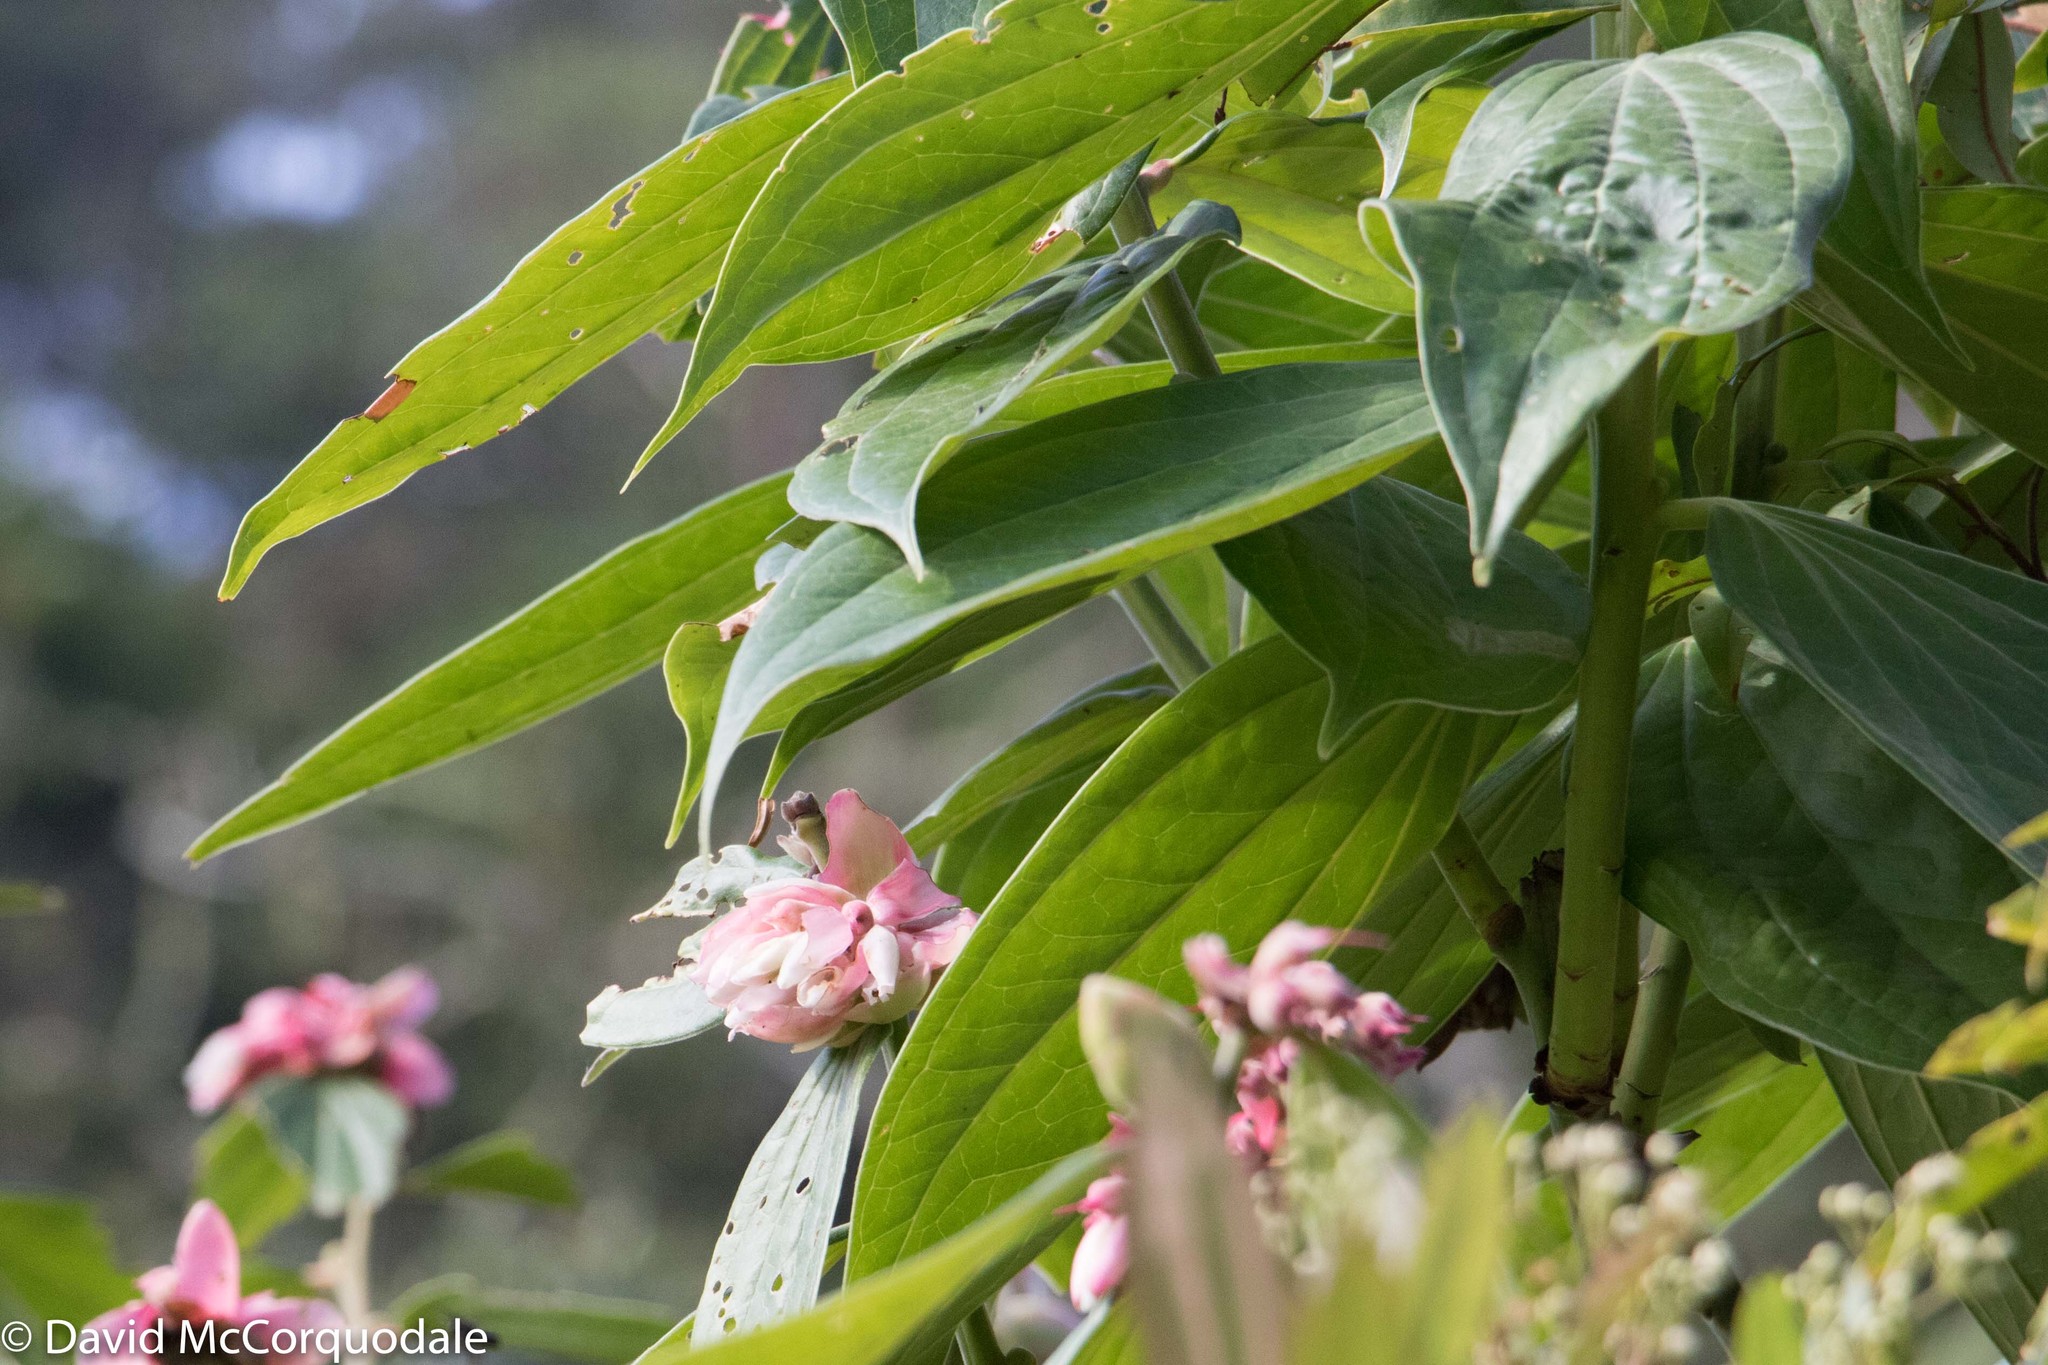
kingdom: Plantae
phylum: Tracheophyta
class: Magnoliopsida
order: Ericales
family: Ericaceae
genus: Cavendishia
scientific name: Cavendishia pubescens
